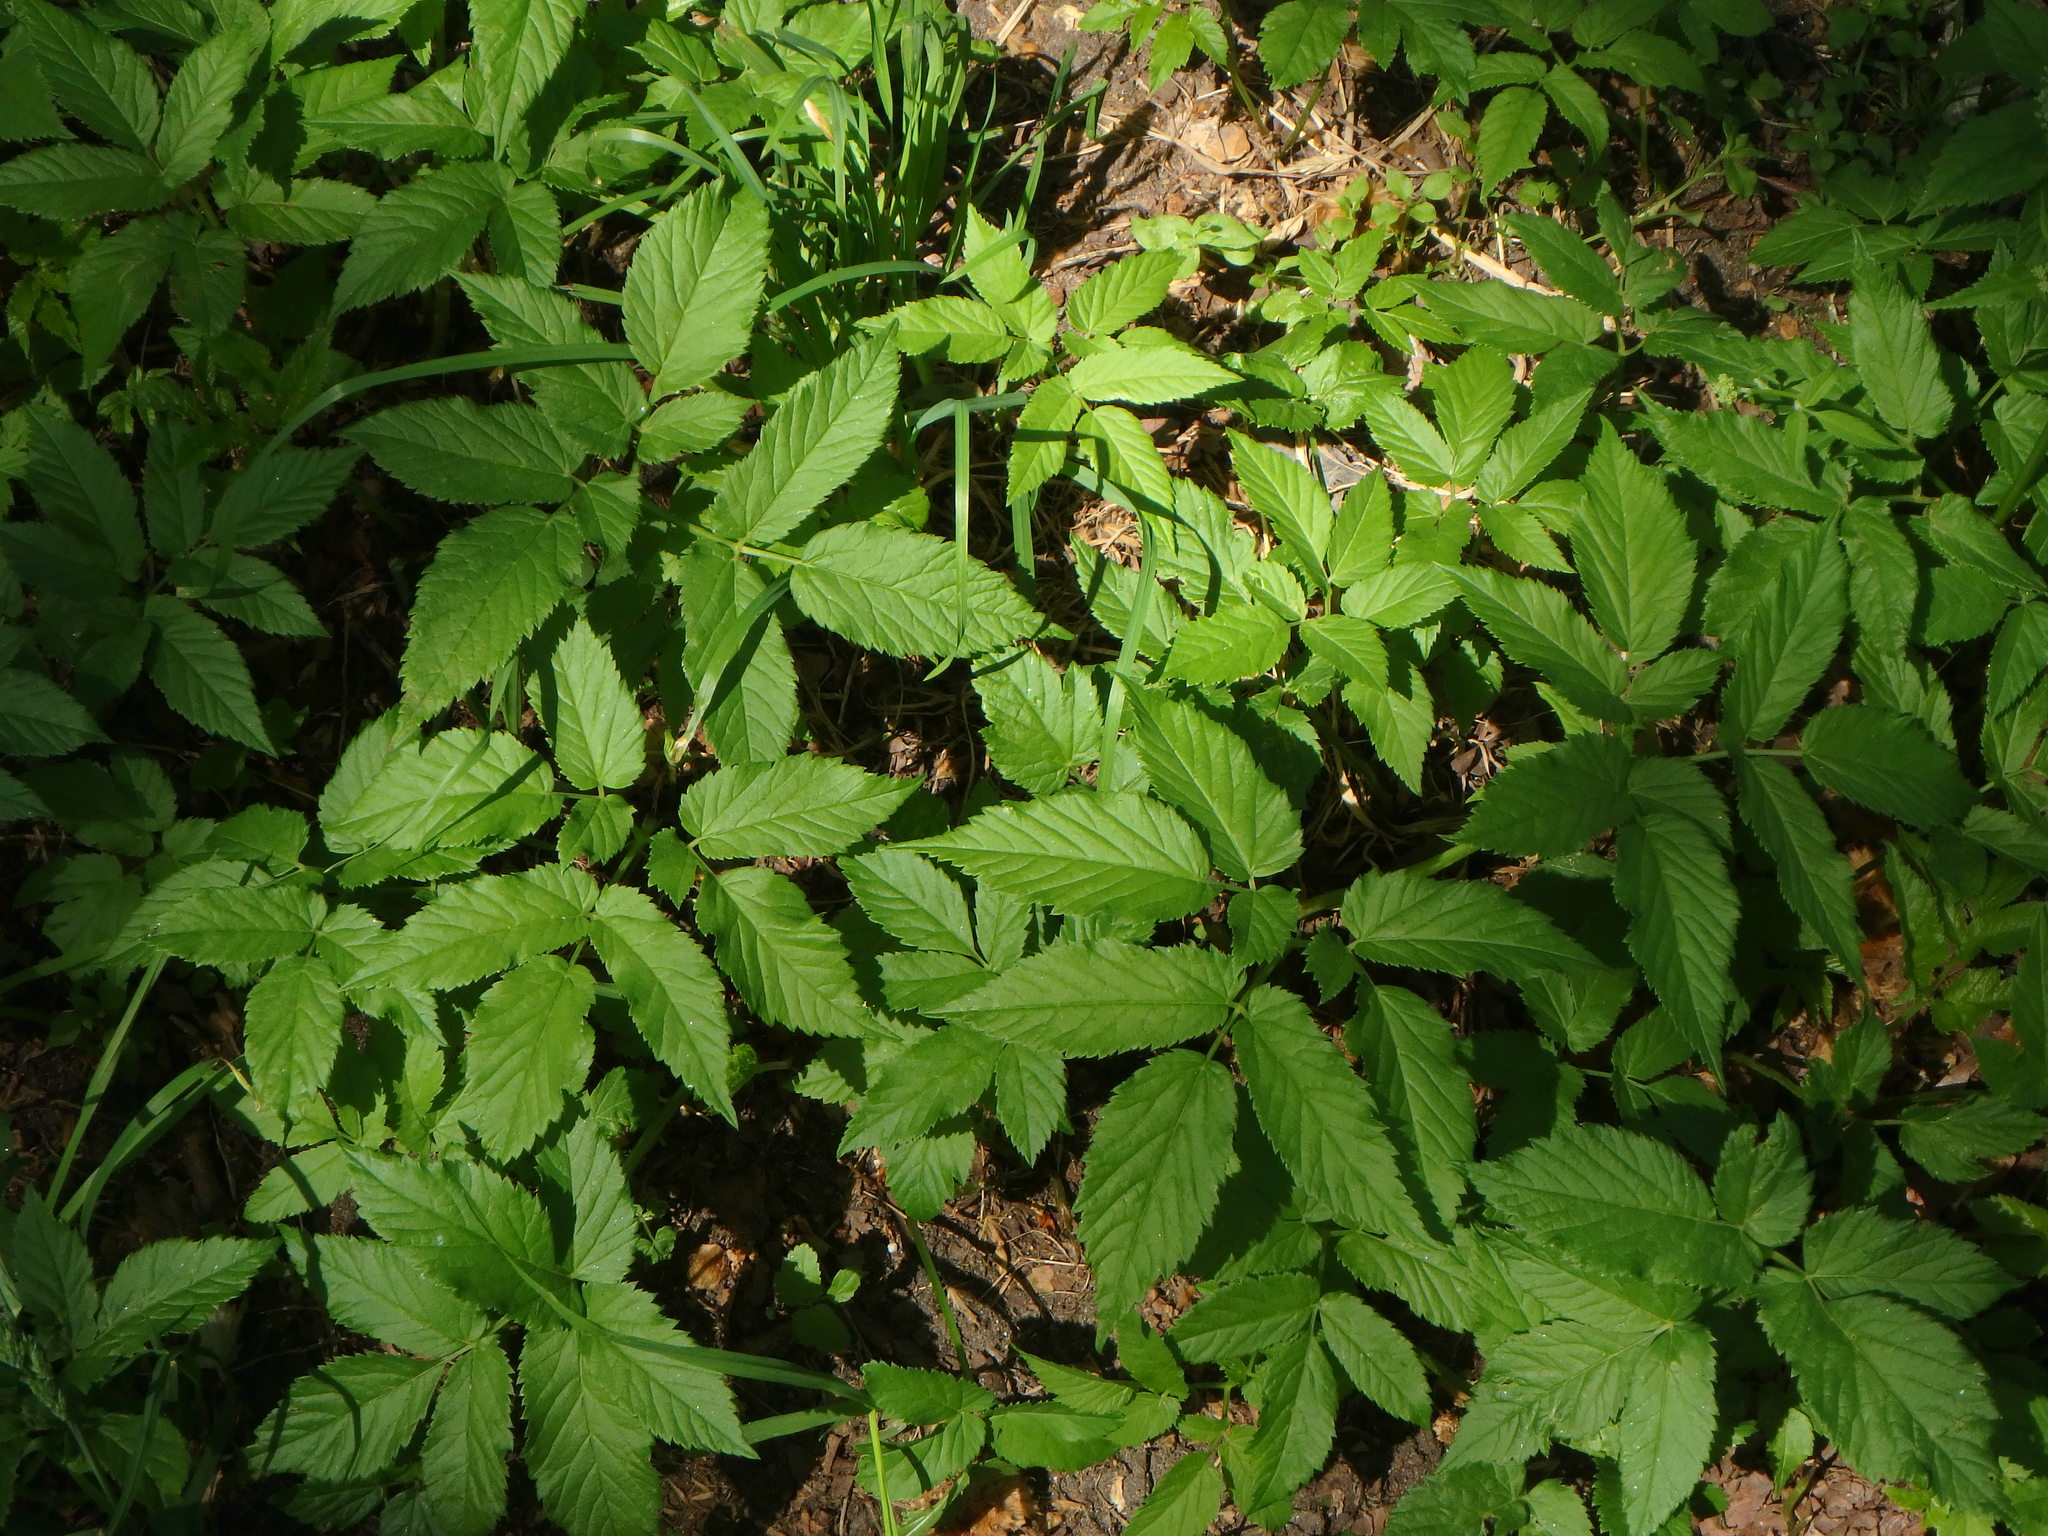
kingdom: Plantae
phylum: Tracheophyta
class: Magnoliopsida
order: Apiales
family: Apiaceae
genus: Aegopodium
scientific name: Aegopodium podagraria
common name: Ground-elder
